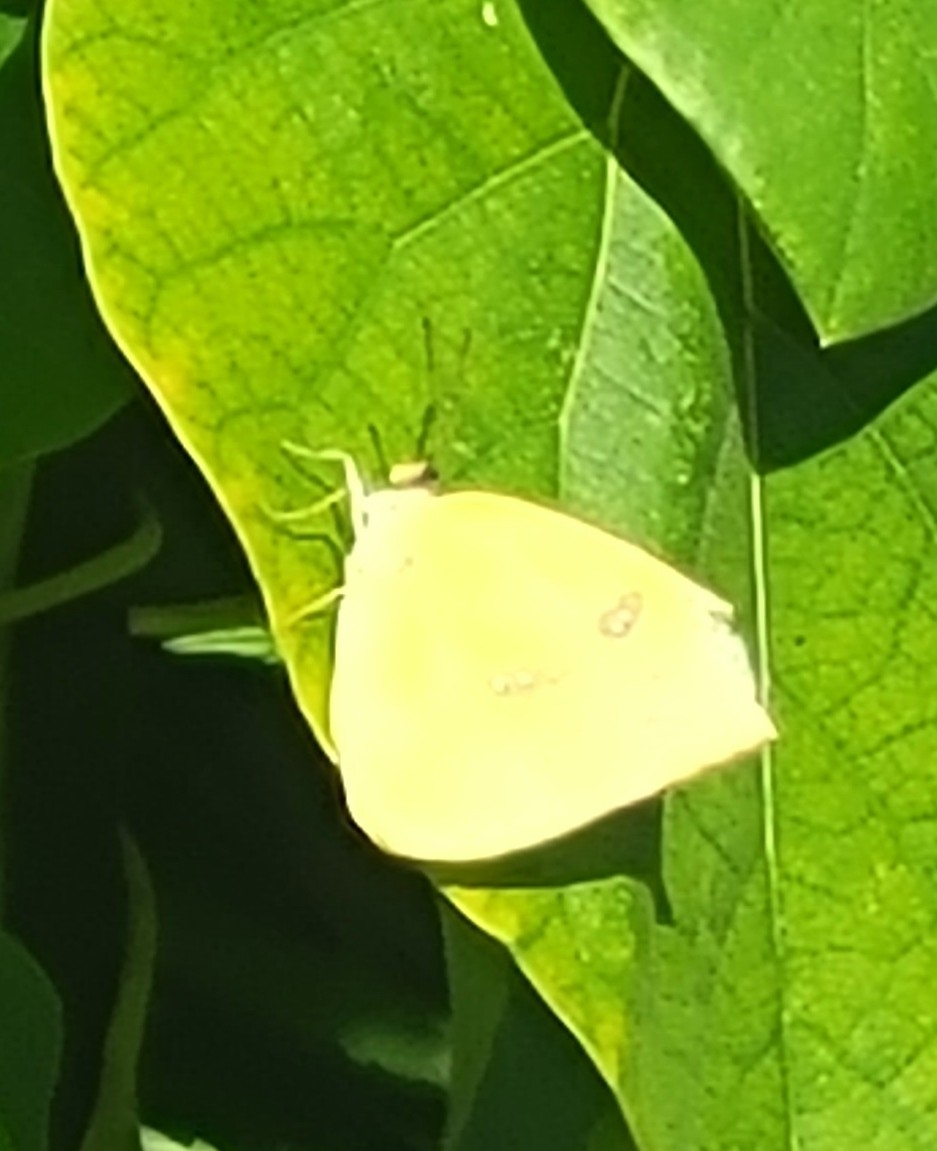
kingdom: Animalia
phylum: Arthropoda
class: Insecta
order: Lepidoptera
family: Pieridae
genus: Phoebis
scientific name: Phoebis sennae
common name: Cloudless sulphur
